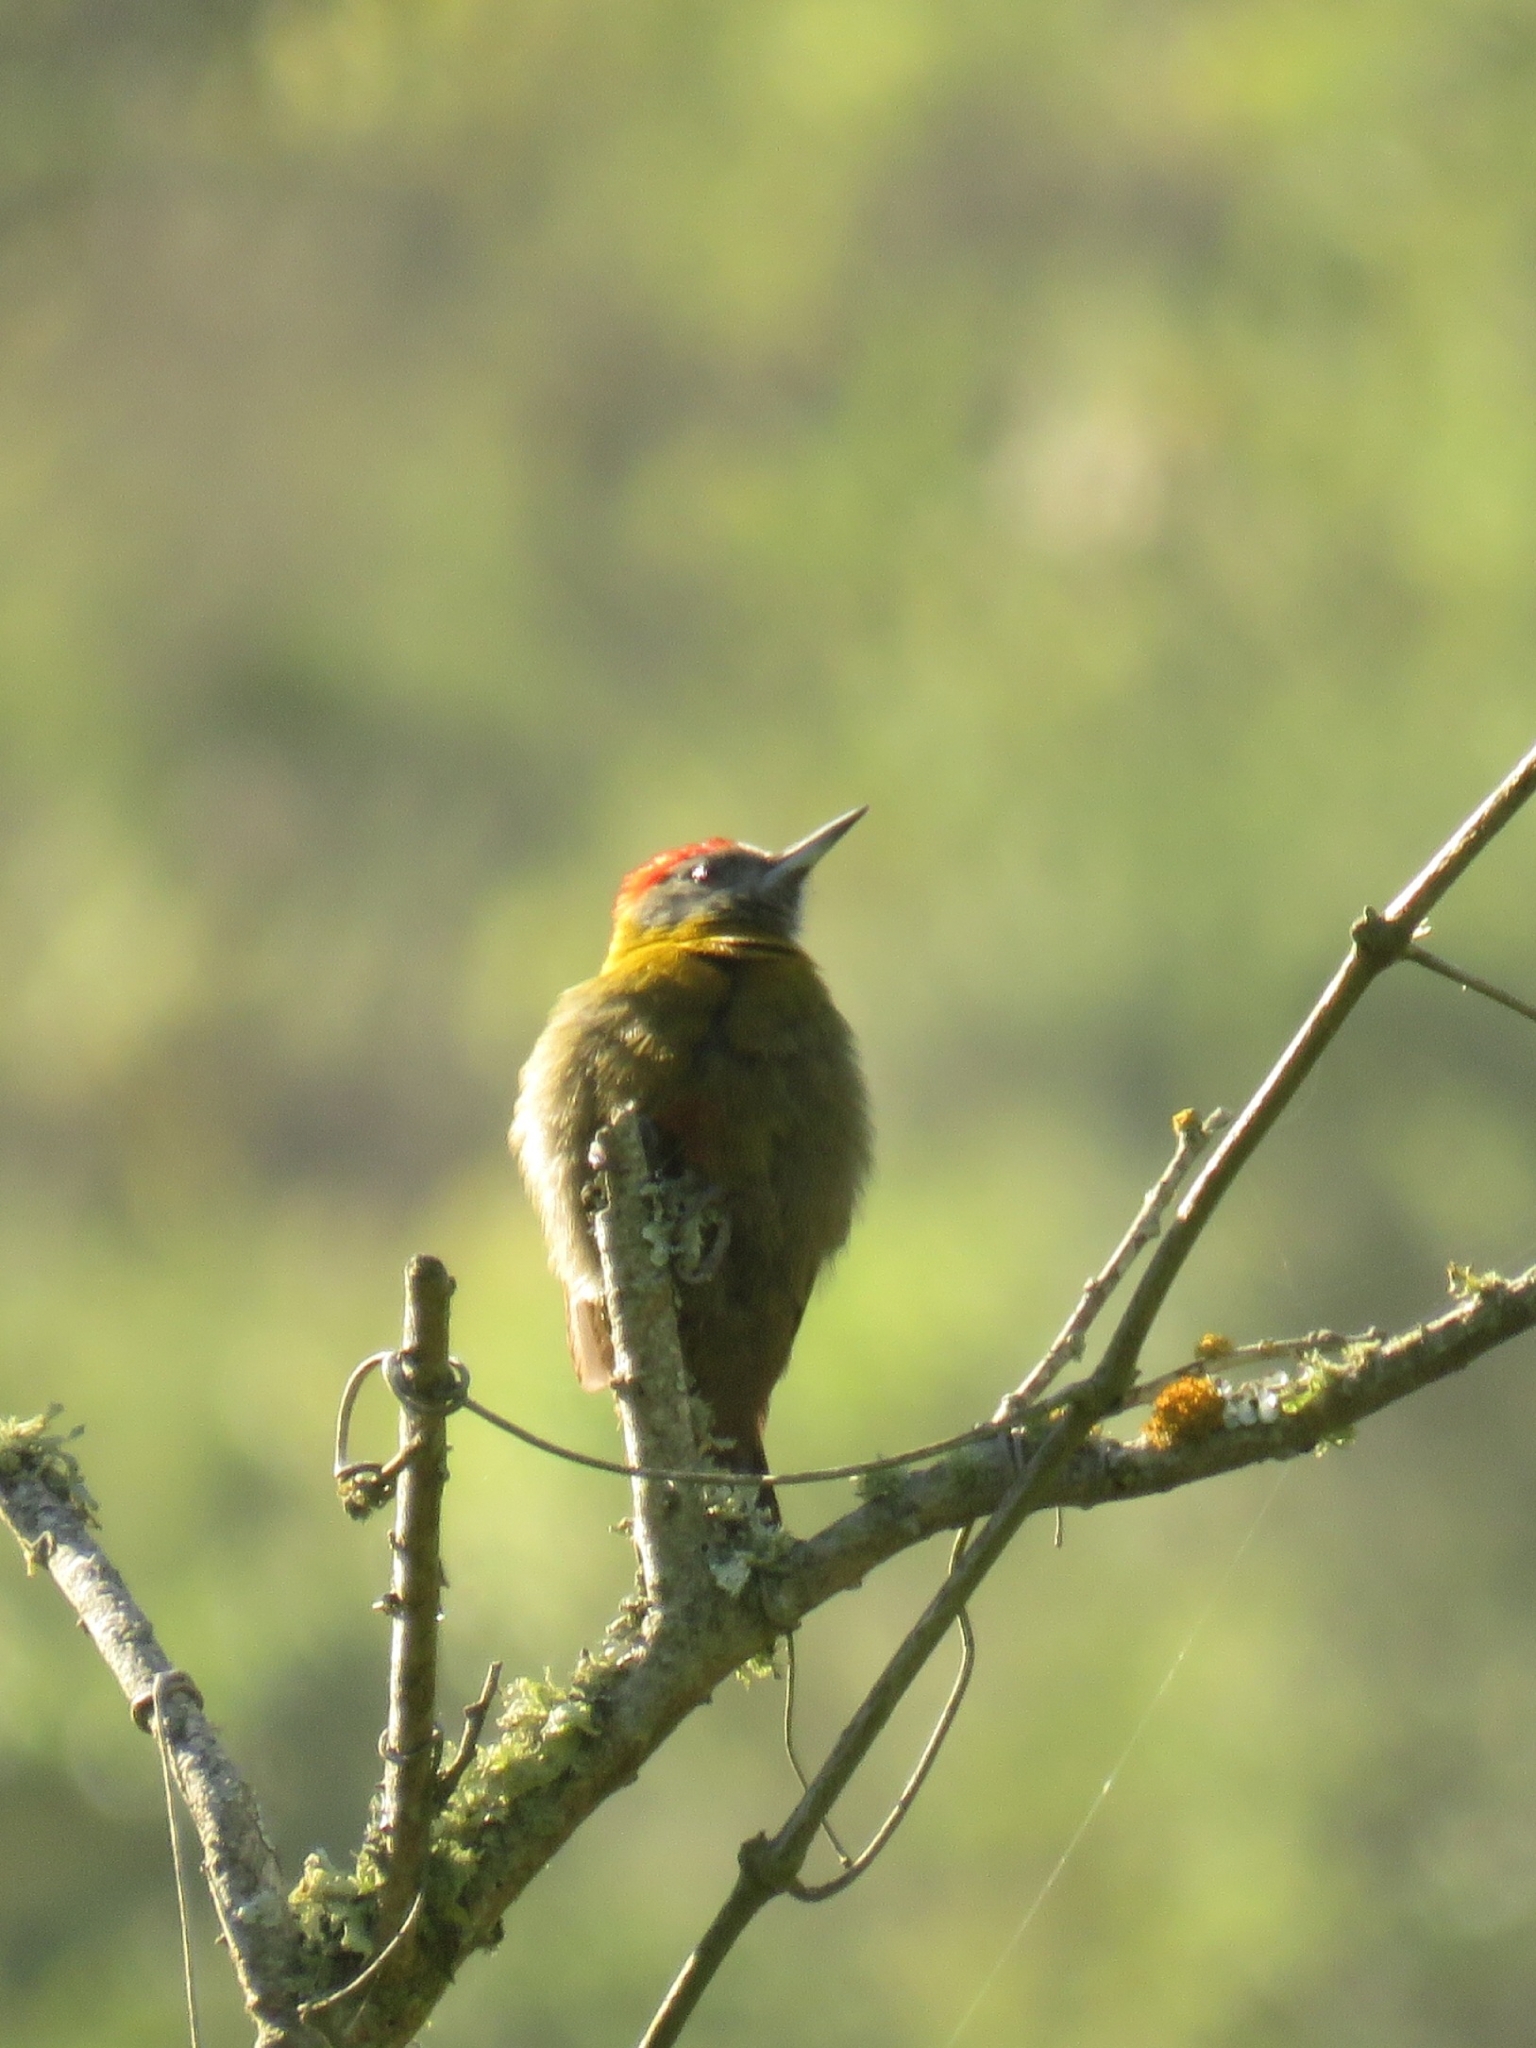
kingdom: Animalia
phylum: Chordata
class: Aves
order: Piciformes
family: Picidae
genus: Dendropicos
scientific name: Dendropicos griseocephalus
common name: Olive woodpecker
